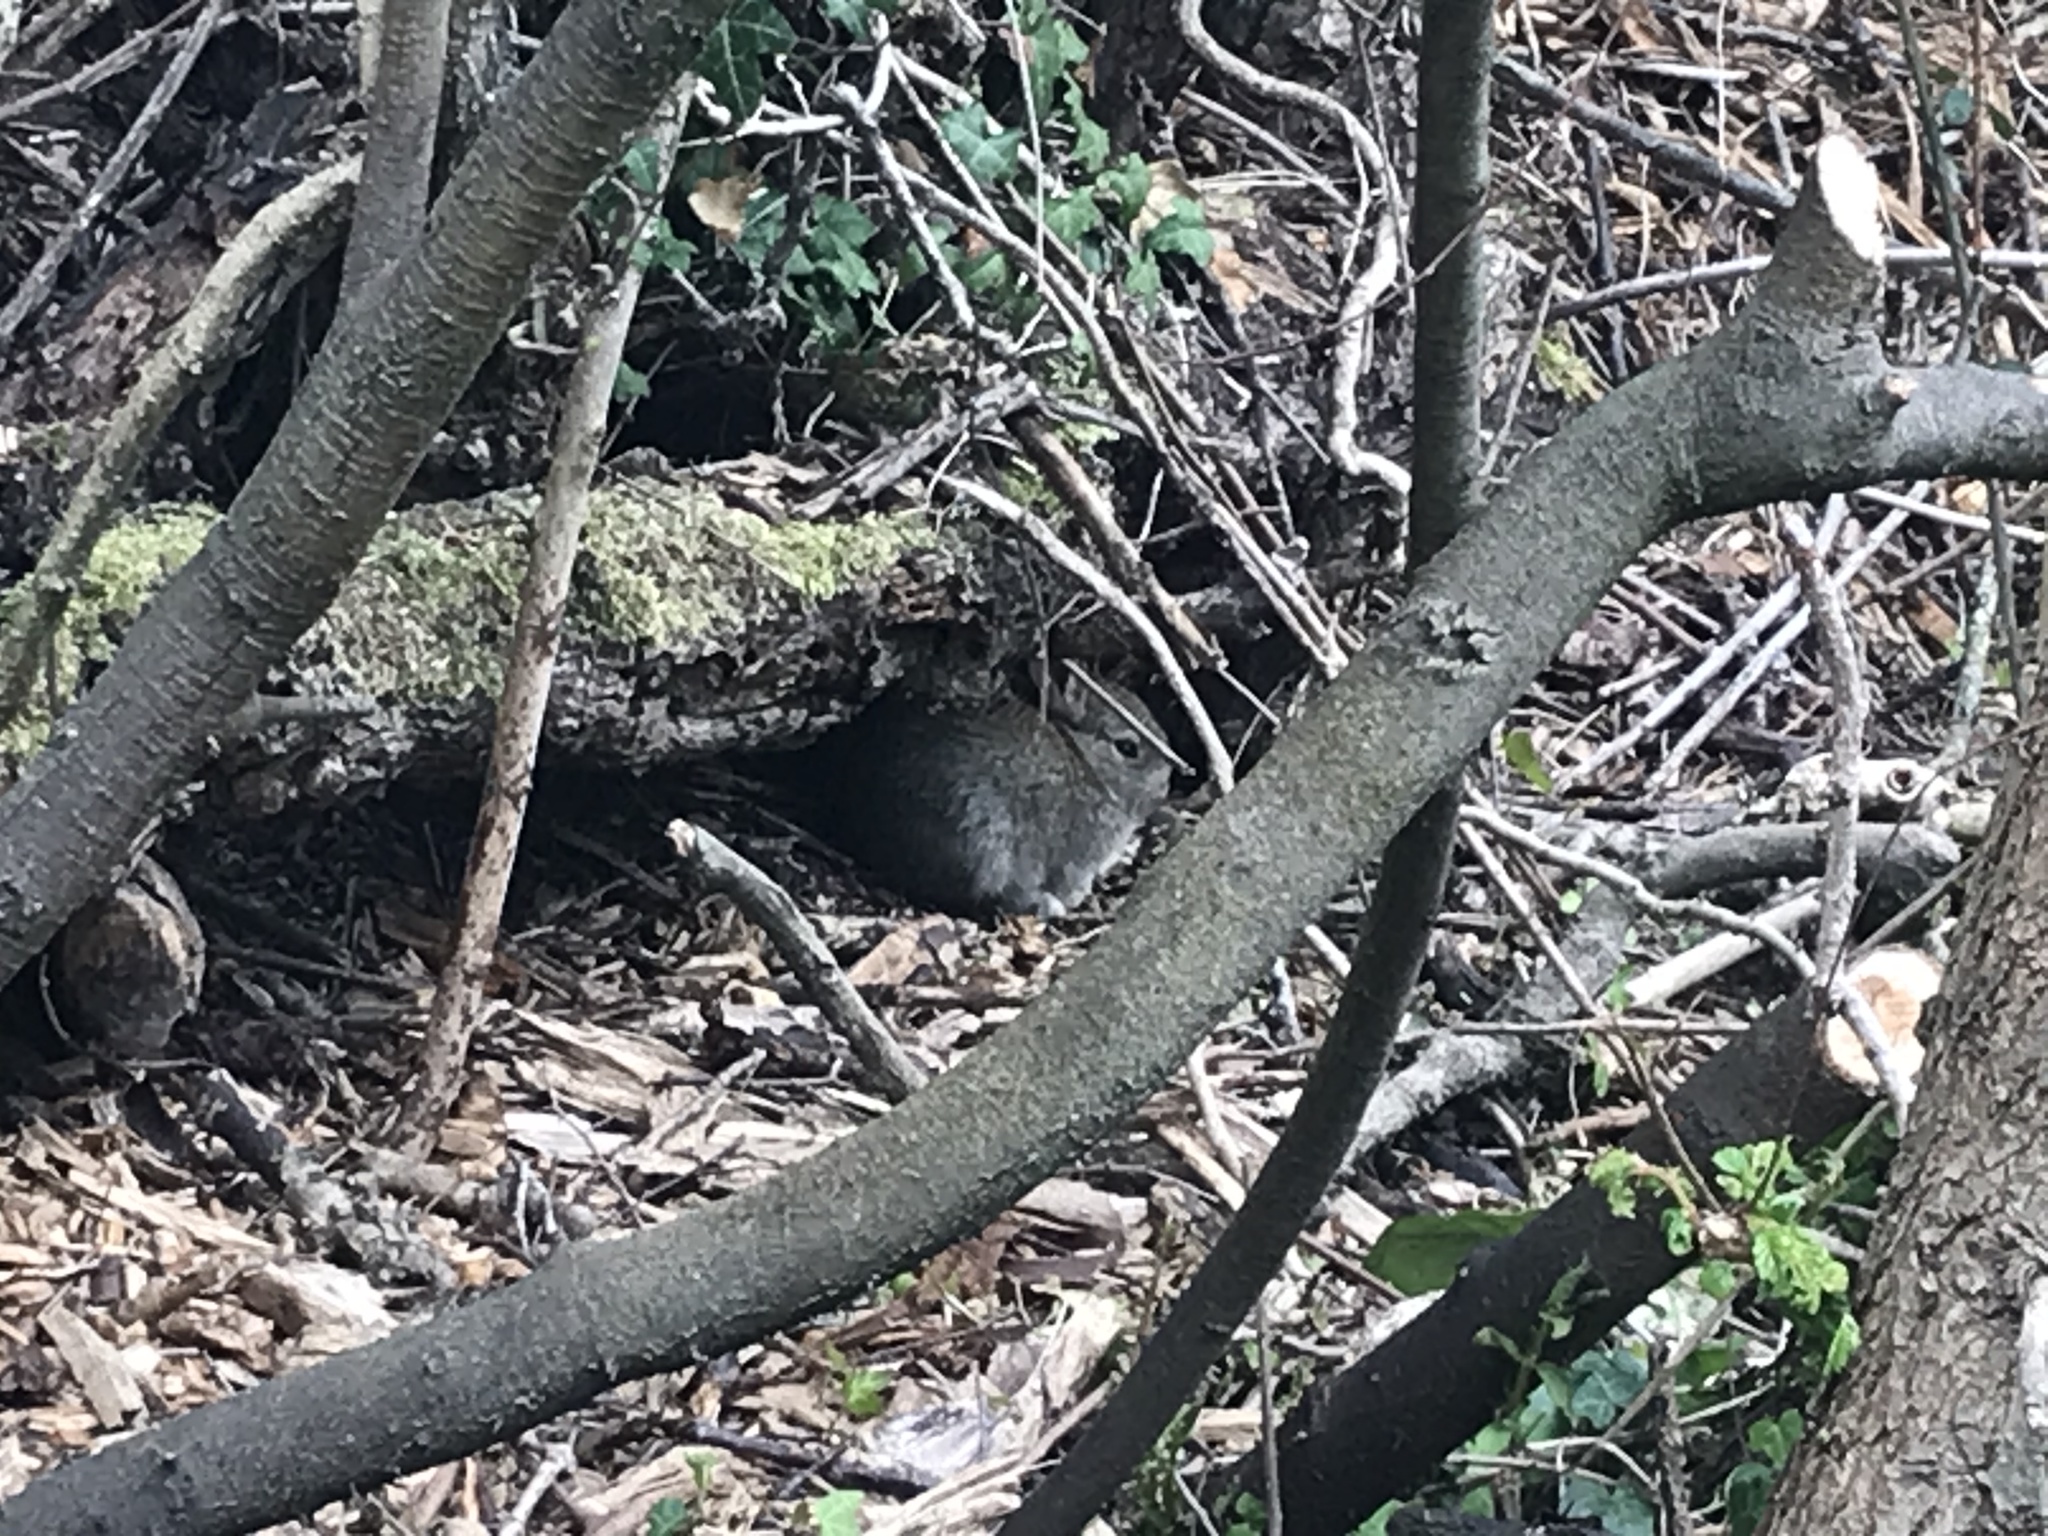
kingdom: Animalia
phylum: Chordata
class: Mammalia
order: Lagomorpha
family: Leporidae
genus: Oryctolagus
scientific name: Oryctolagus cuniculus
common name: European rabbit
